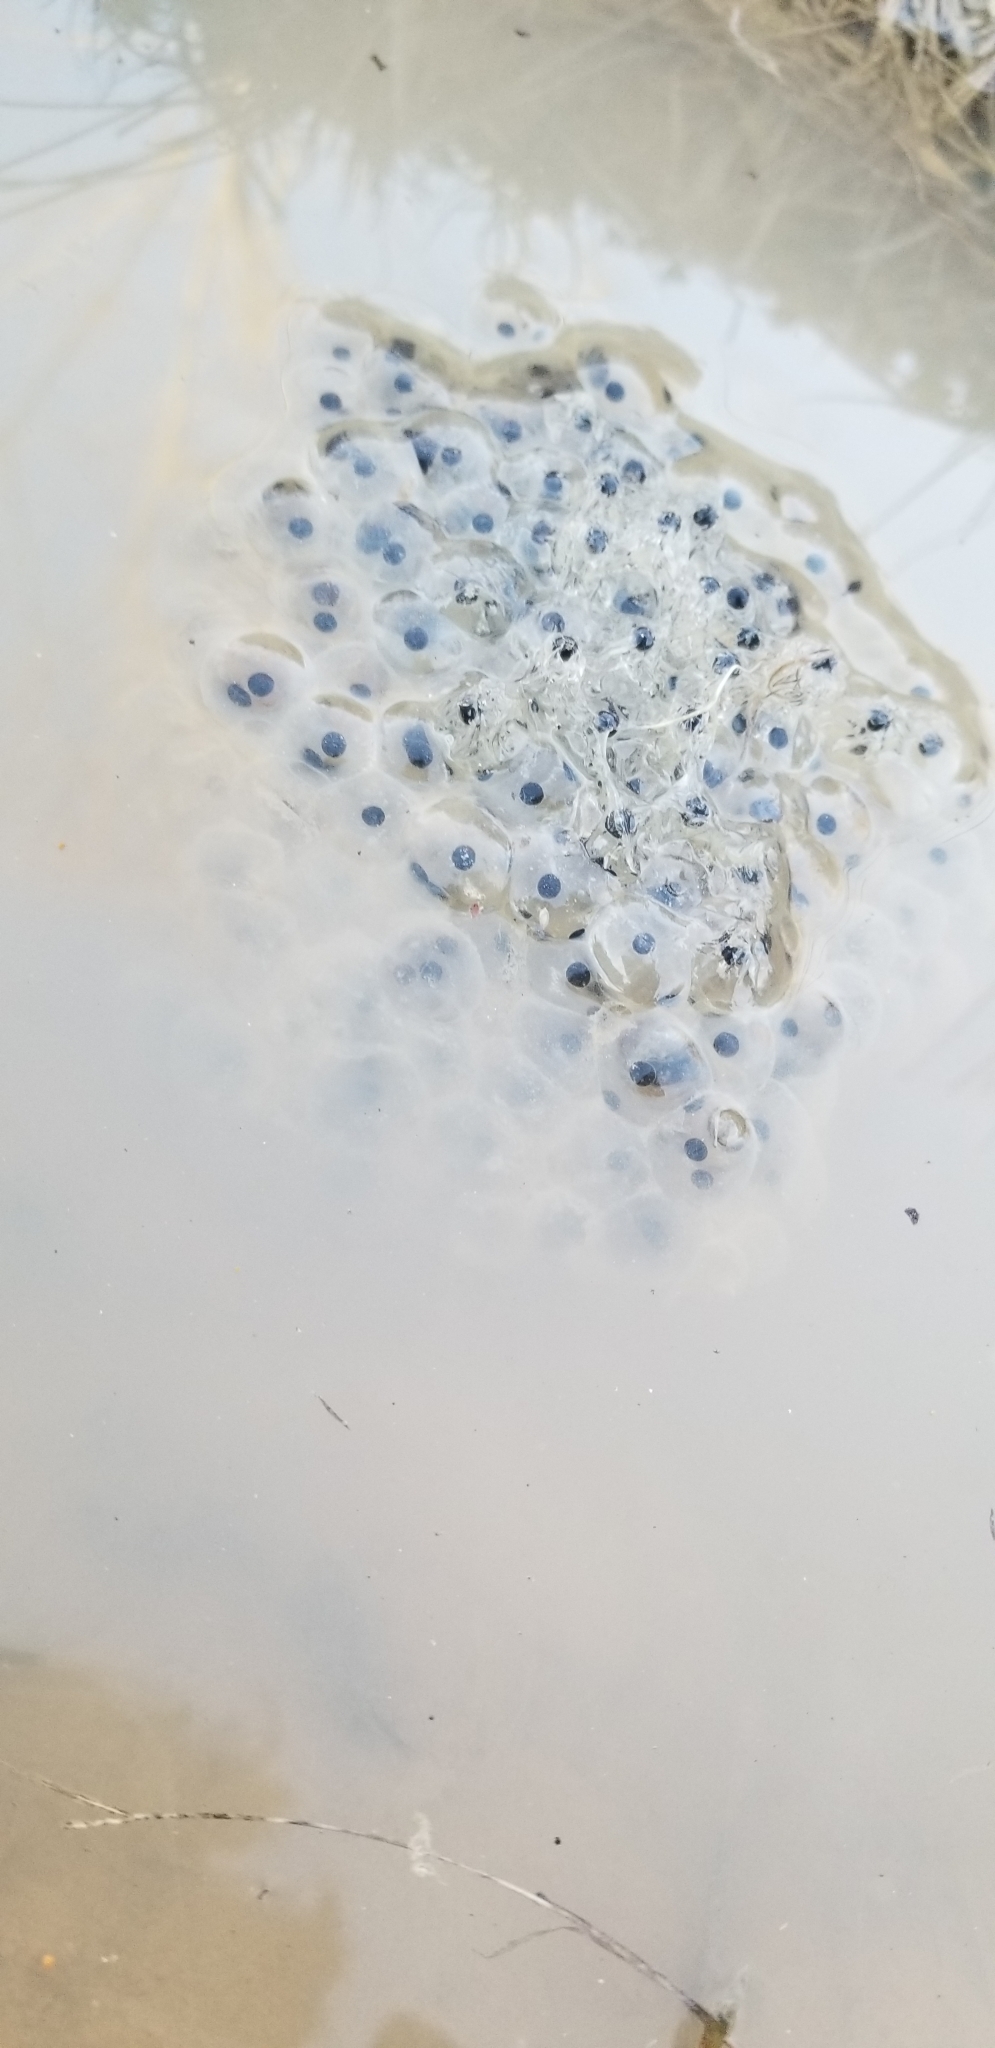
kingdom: Animalia
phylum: Chordata
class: Amphibia
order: Anura
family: Ranidae
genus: Lithobates
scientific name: Lithobates sylvaticus
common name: Wood frog
